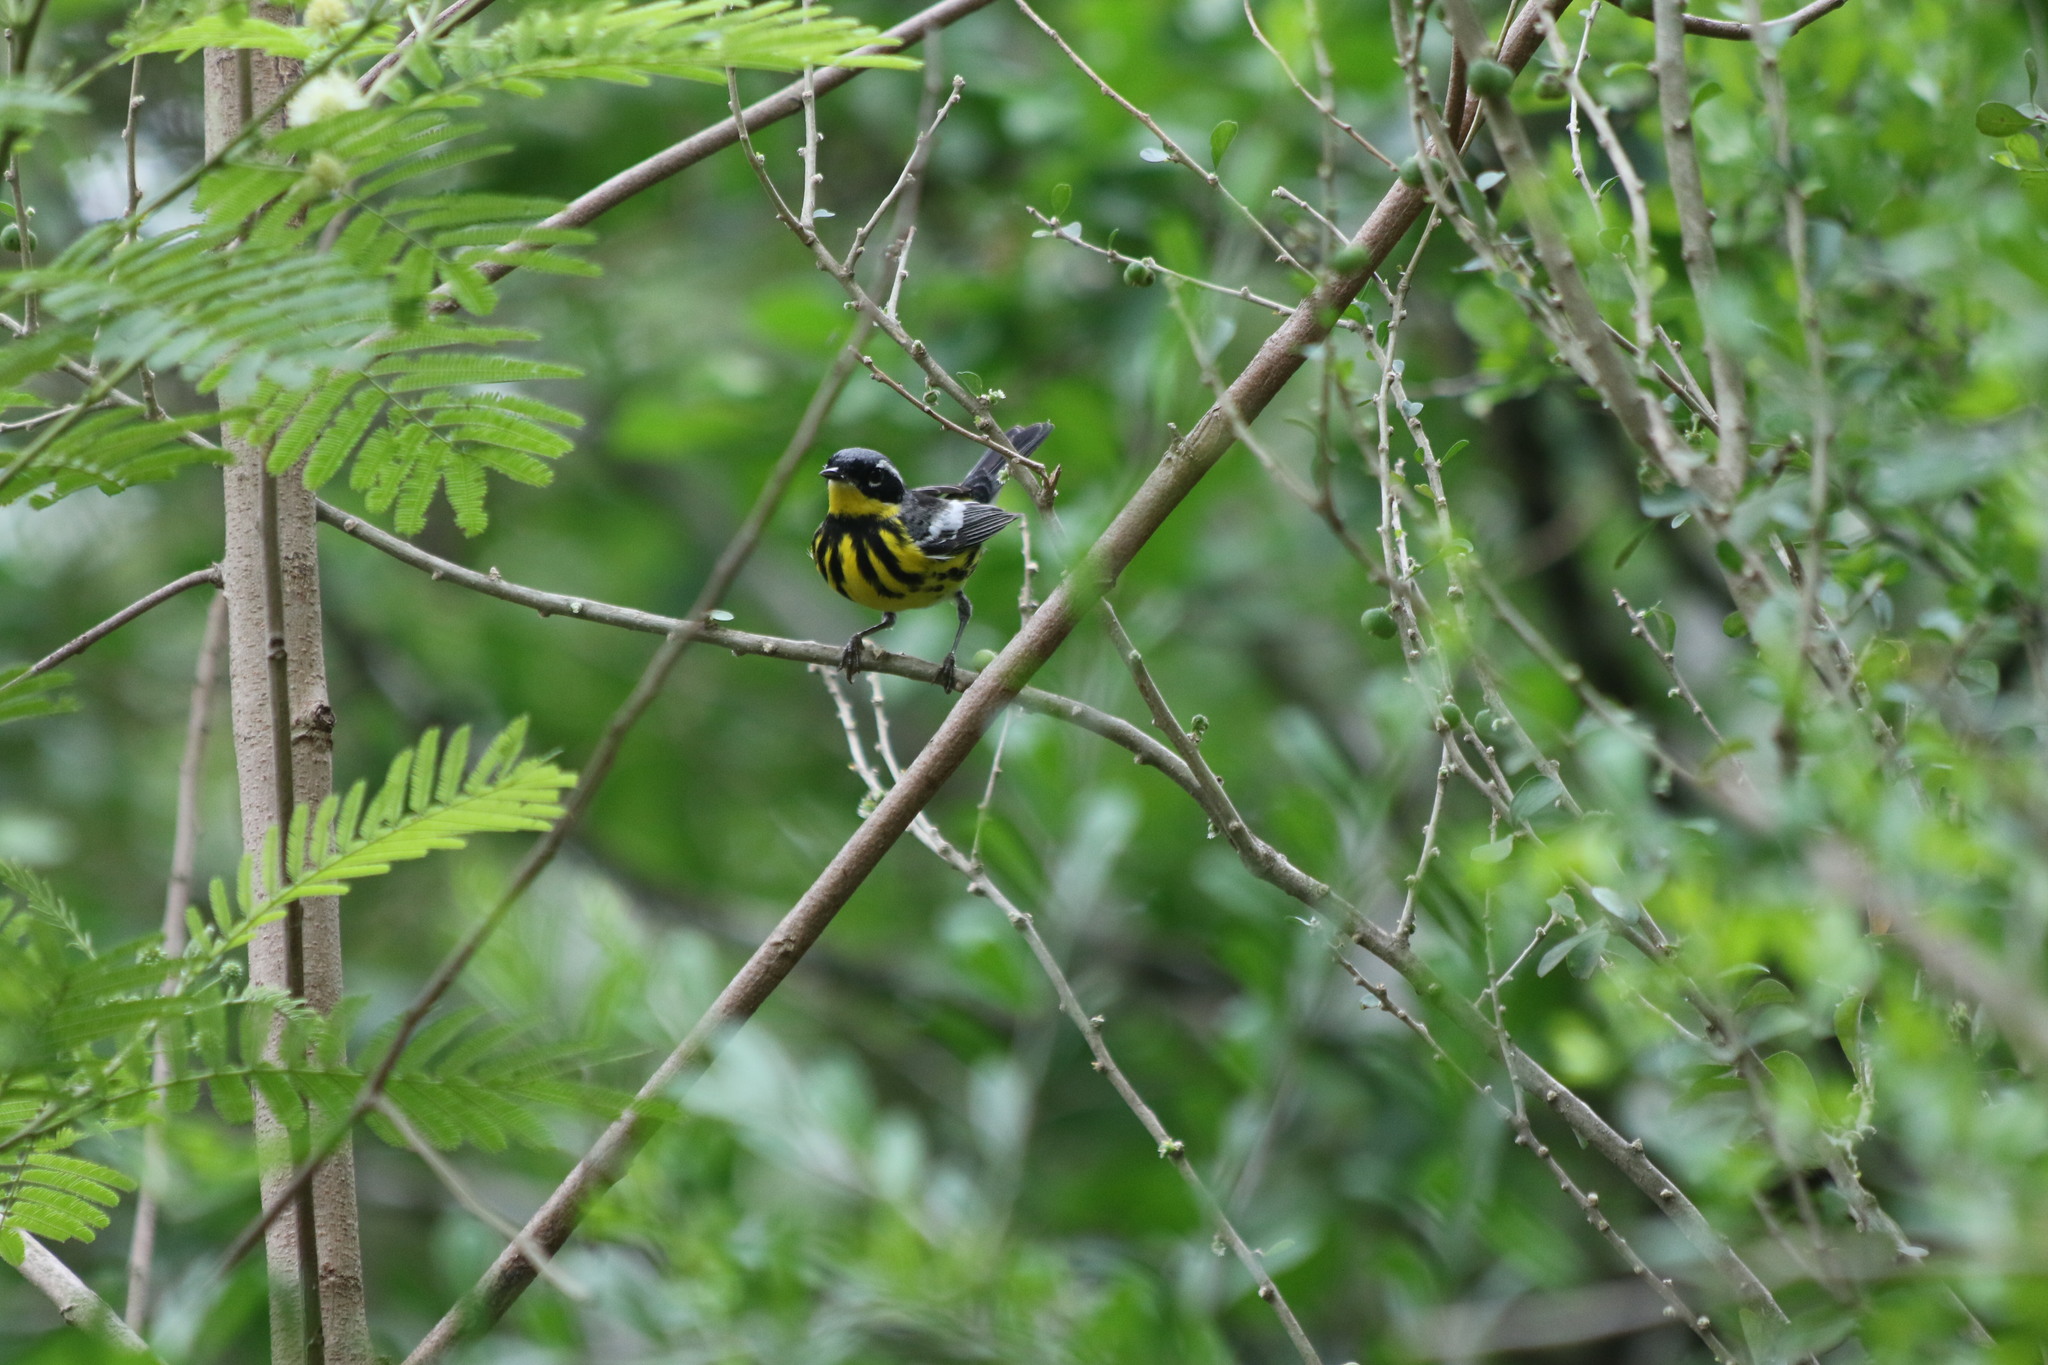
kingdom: Animalia
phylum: Chordata
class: Aves
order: Passeriformes
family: Parulidae
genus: Setophaga
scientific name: Setophaga magnolia
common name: Magnolia warbler
